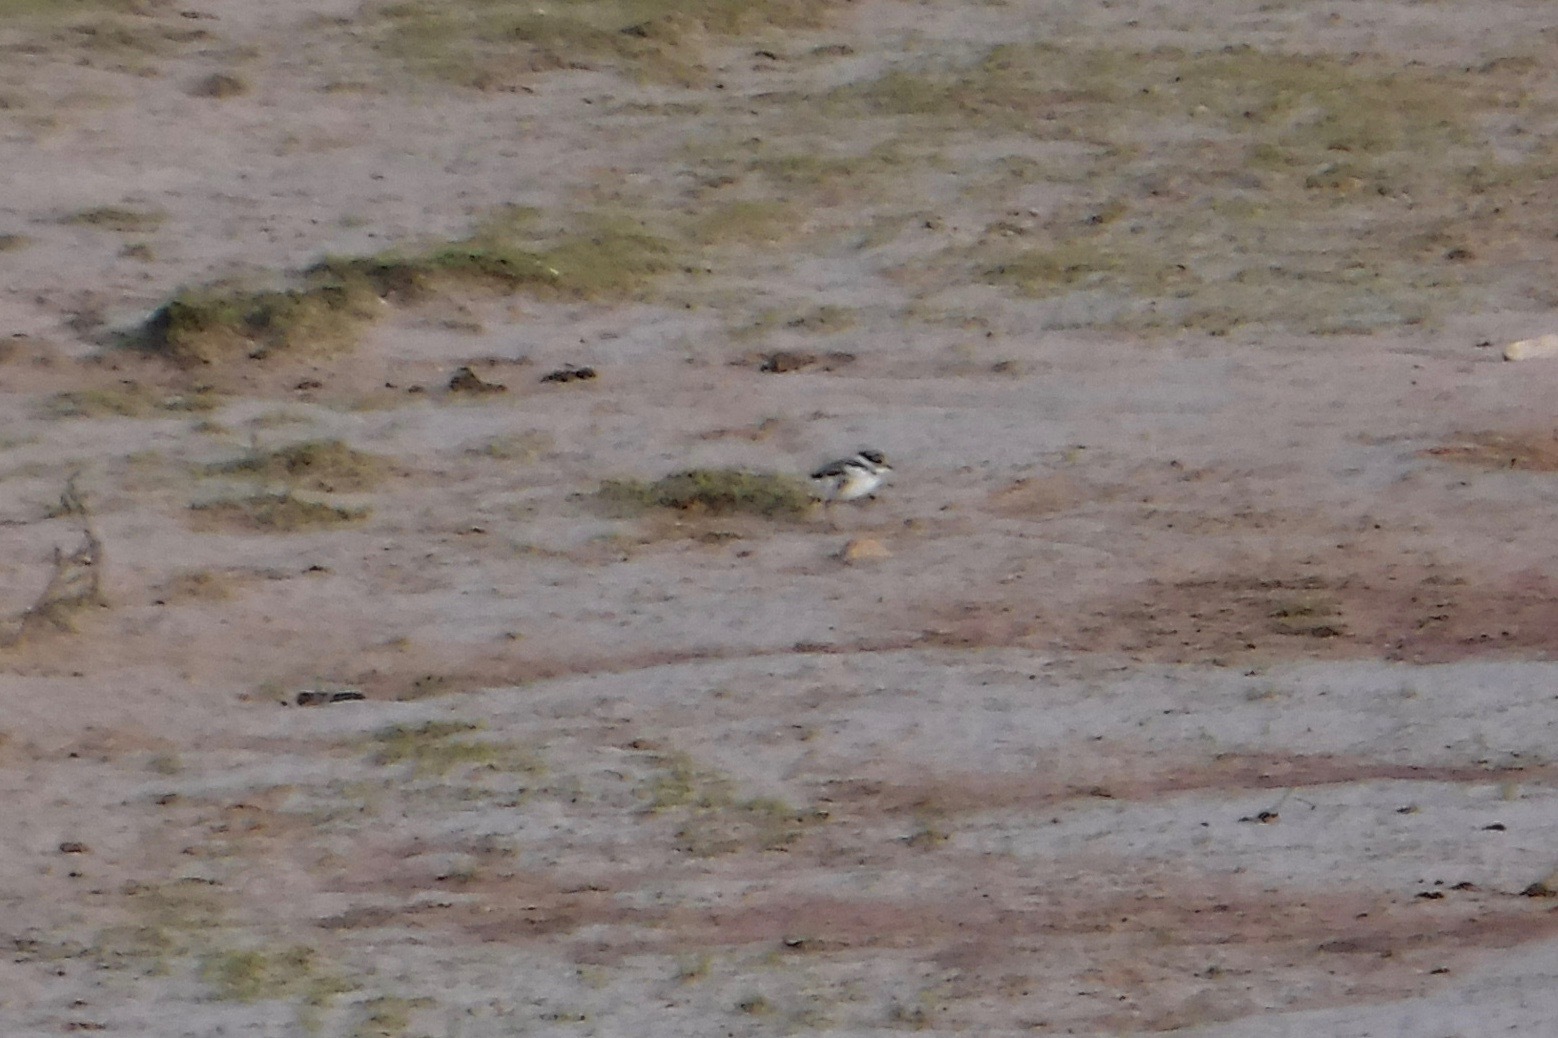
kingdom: Animalia
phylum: Chordata
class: Aves
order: Charadriiformes
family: Charadriidae
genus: Charadrius
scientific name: Charadrius semipalmatus
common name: Semipalmated plover
